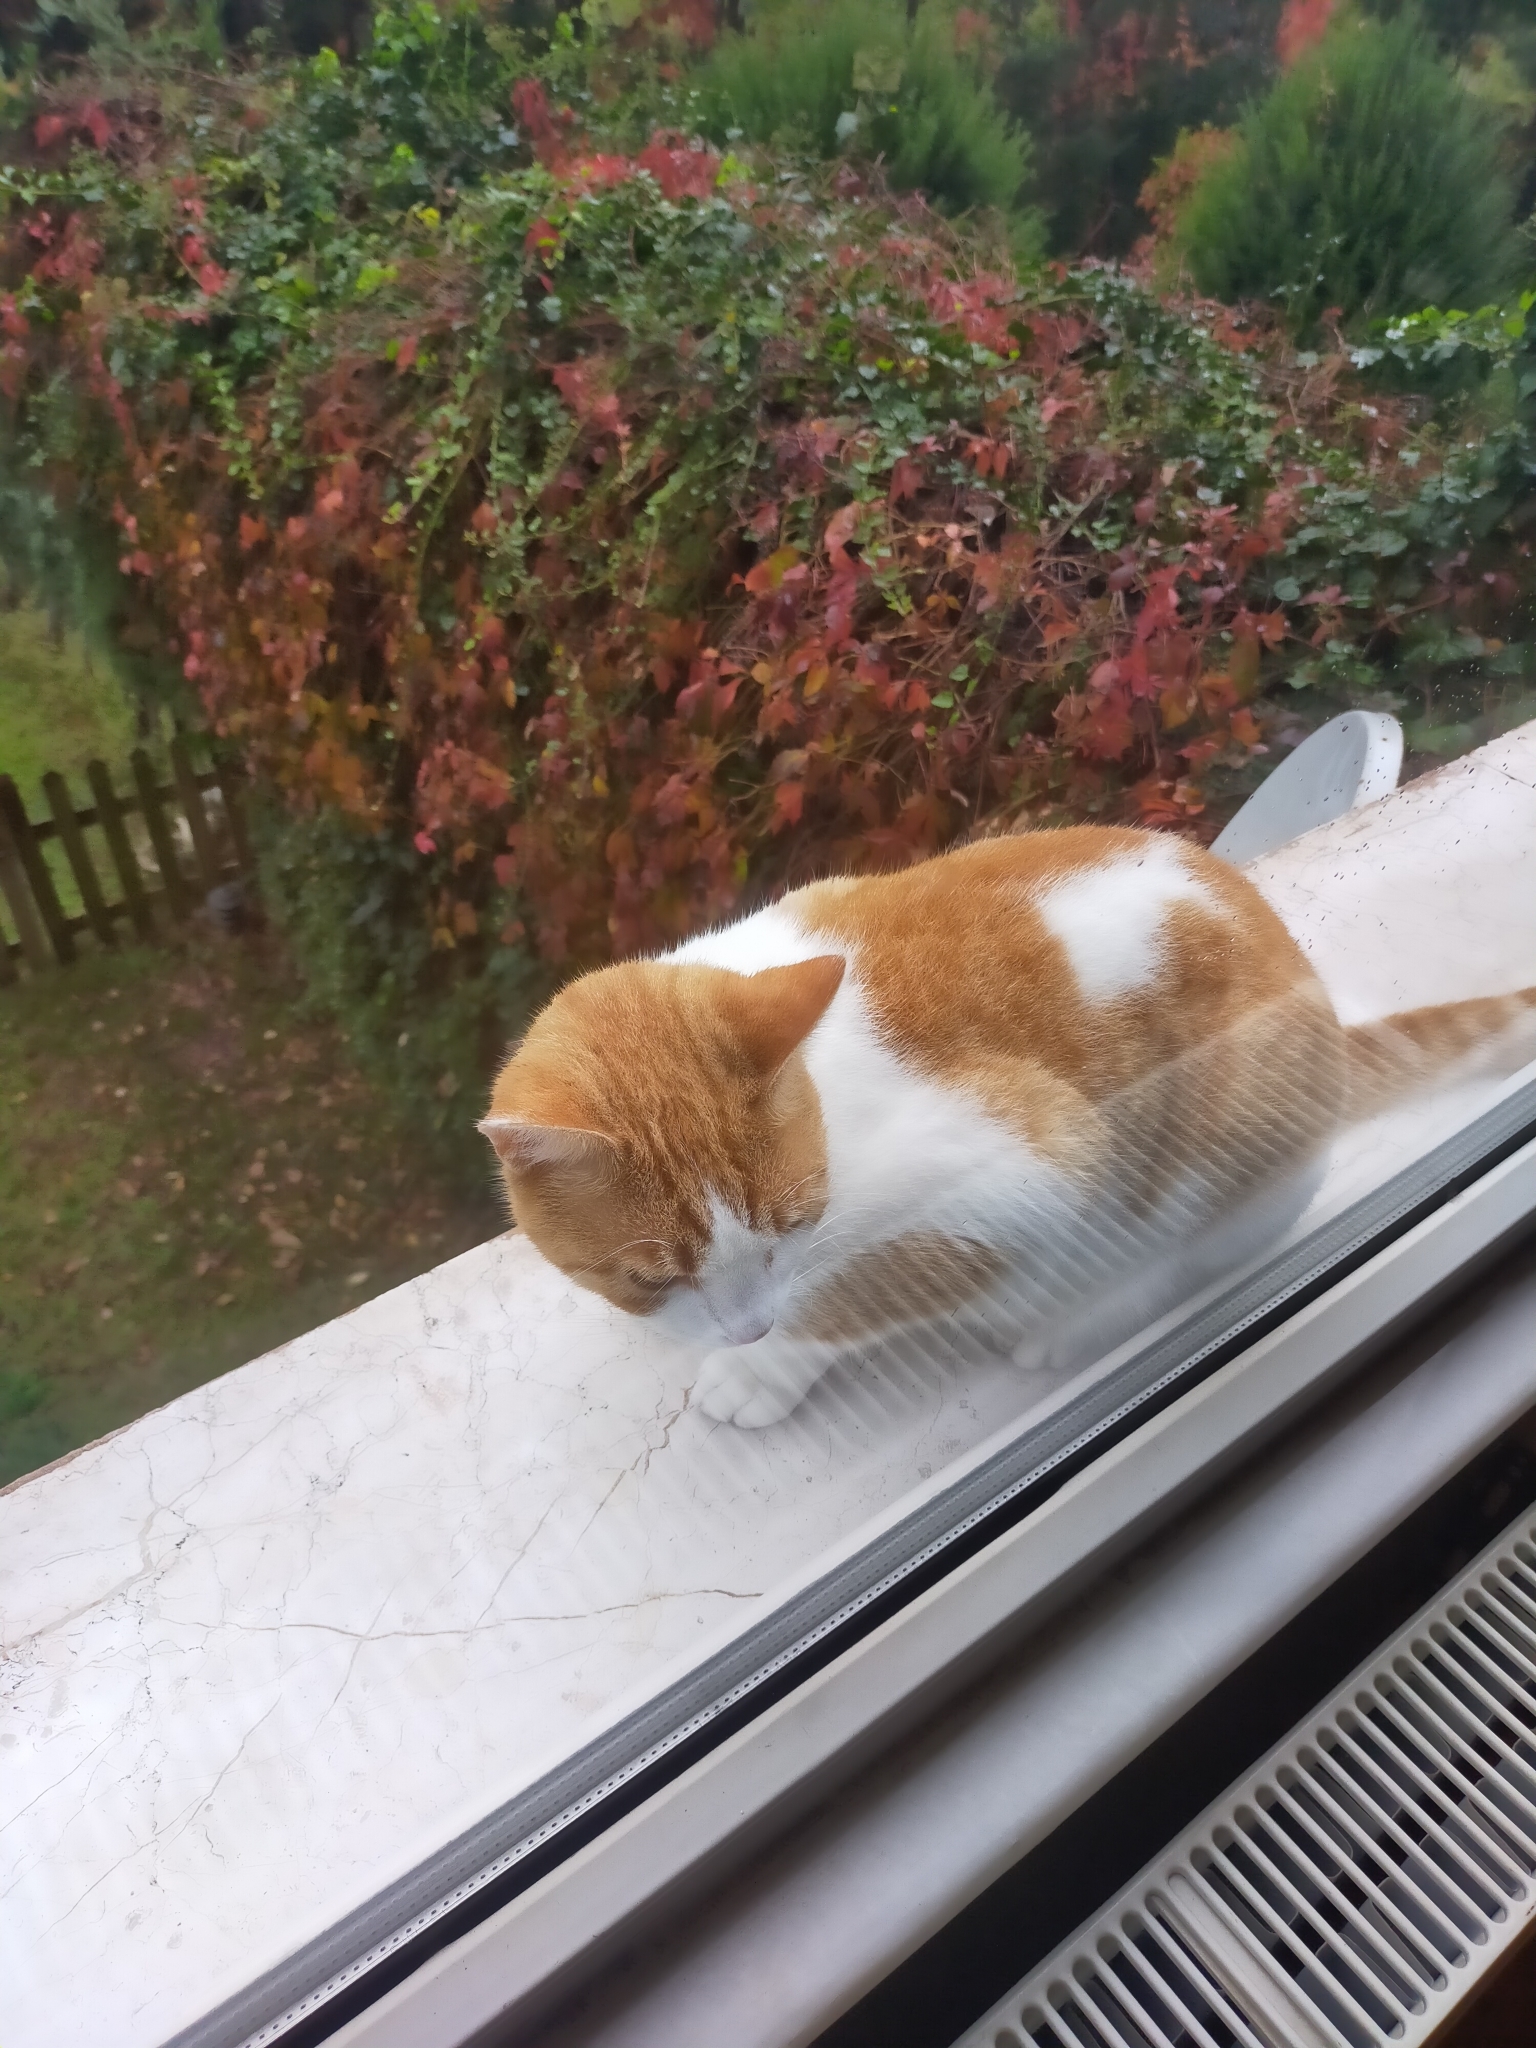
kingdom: Animalia
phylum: Chordata
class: Mammalia
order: Carnivora
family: Felidae
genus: Felis
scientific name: Felis catus
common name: Domestic cat
